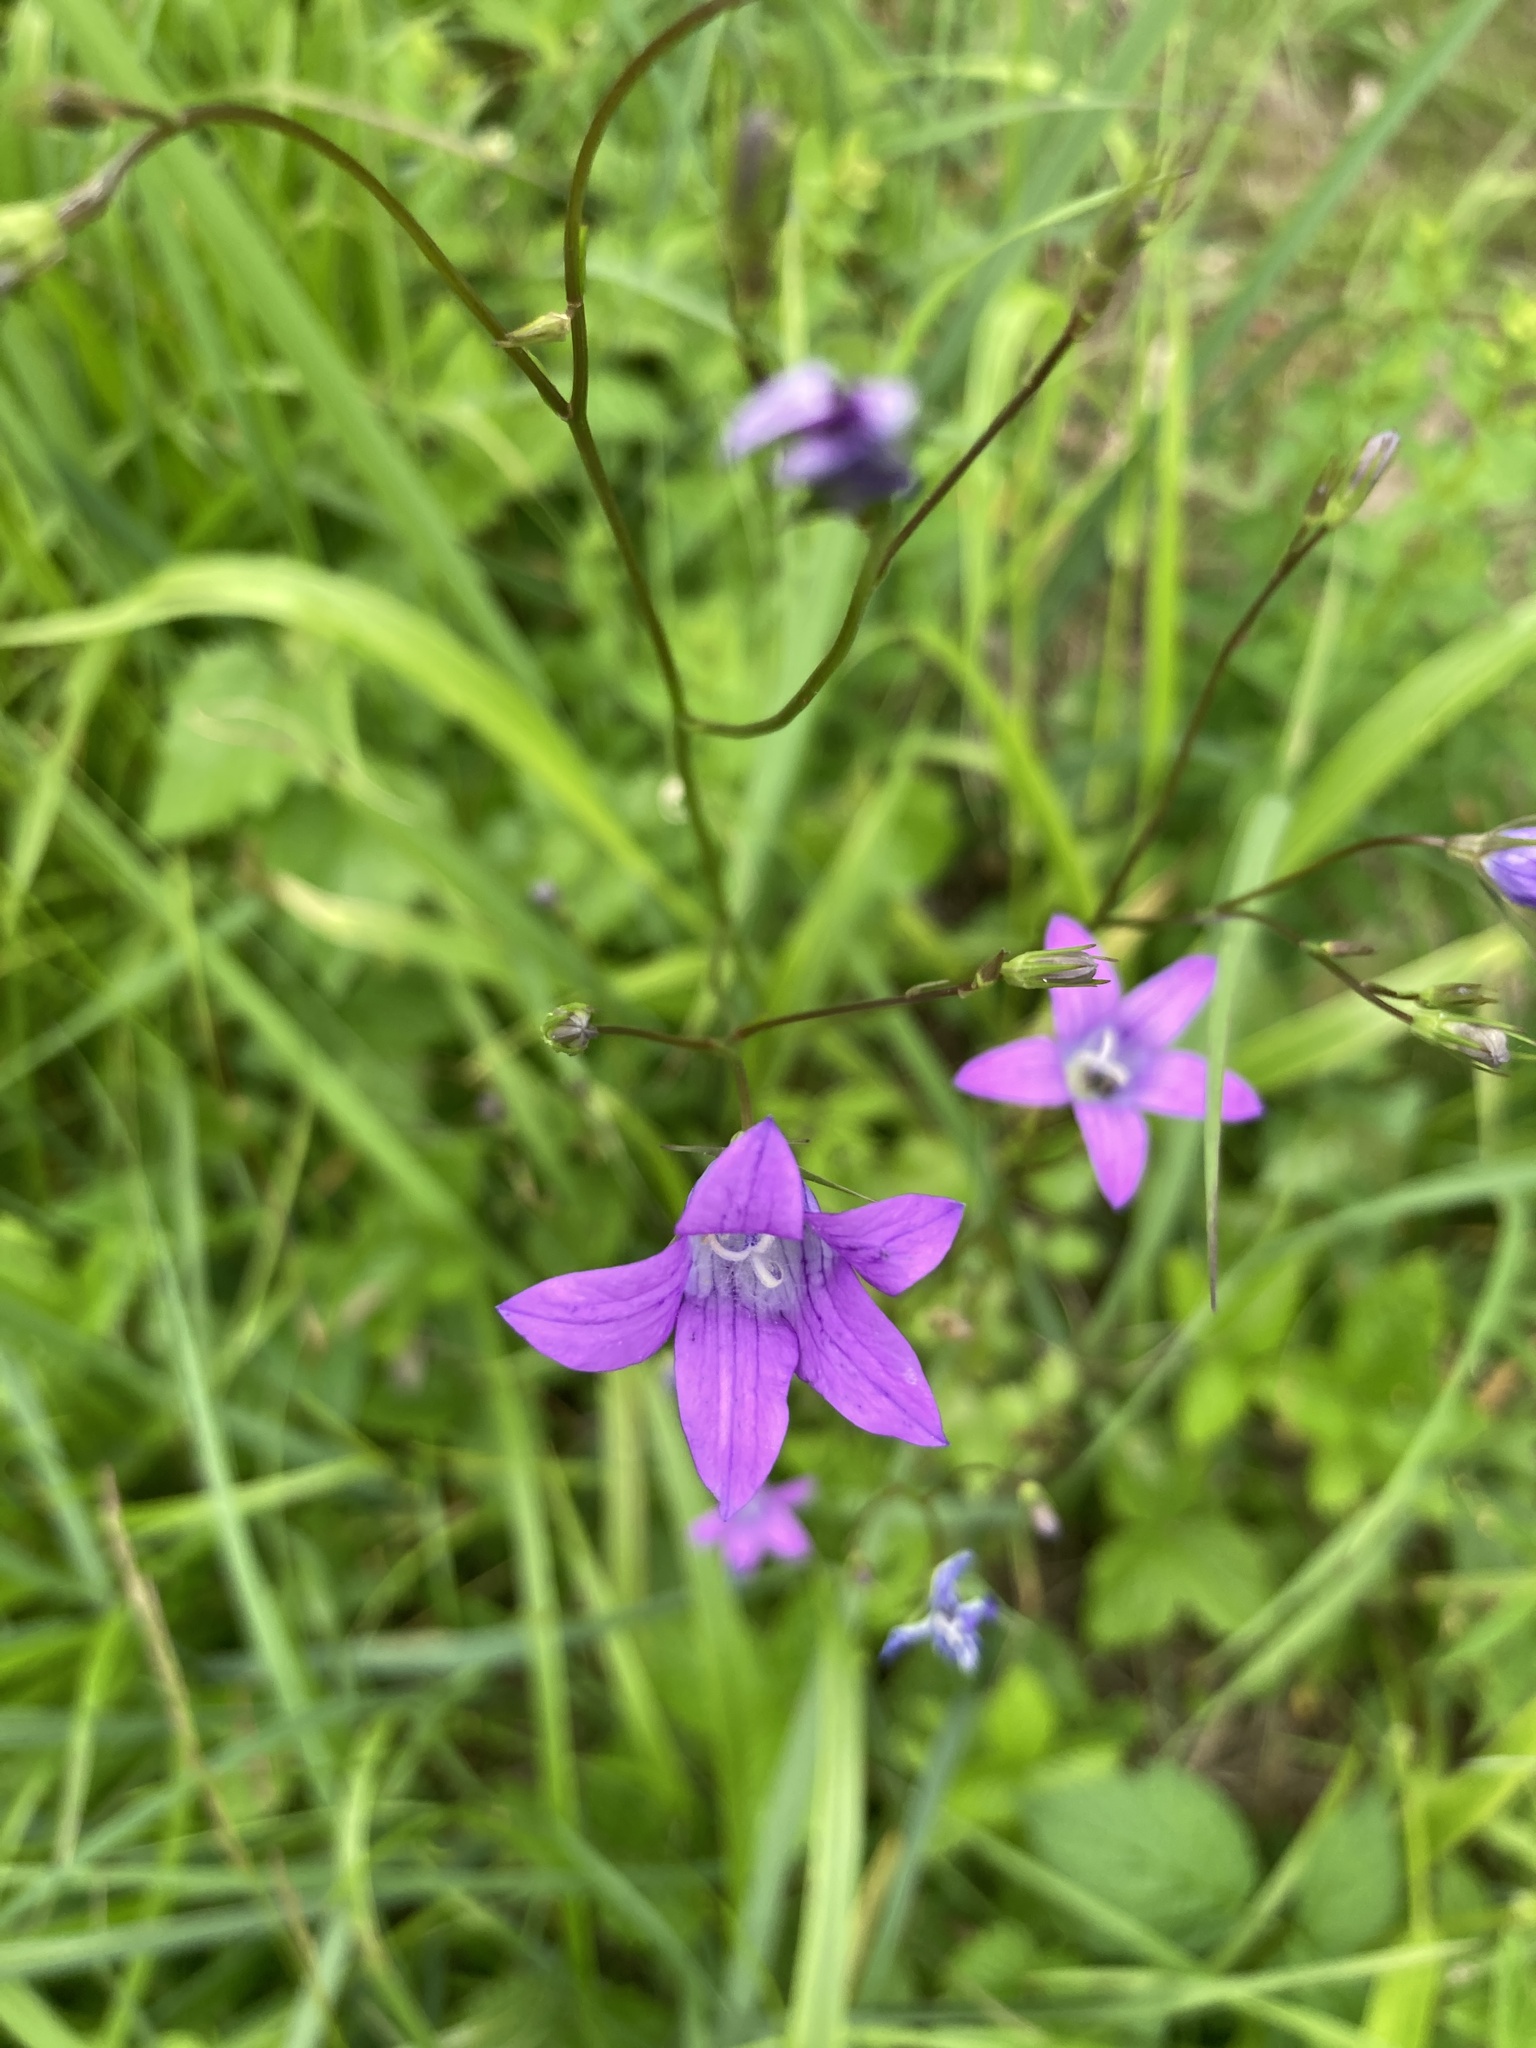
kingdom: Plantae
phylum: Tracheophyta
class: Magnoliopsida
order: Asterales
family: Campanulaceae
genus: Campanula
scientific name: Campanula patula
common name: Spreading bellflower
